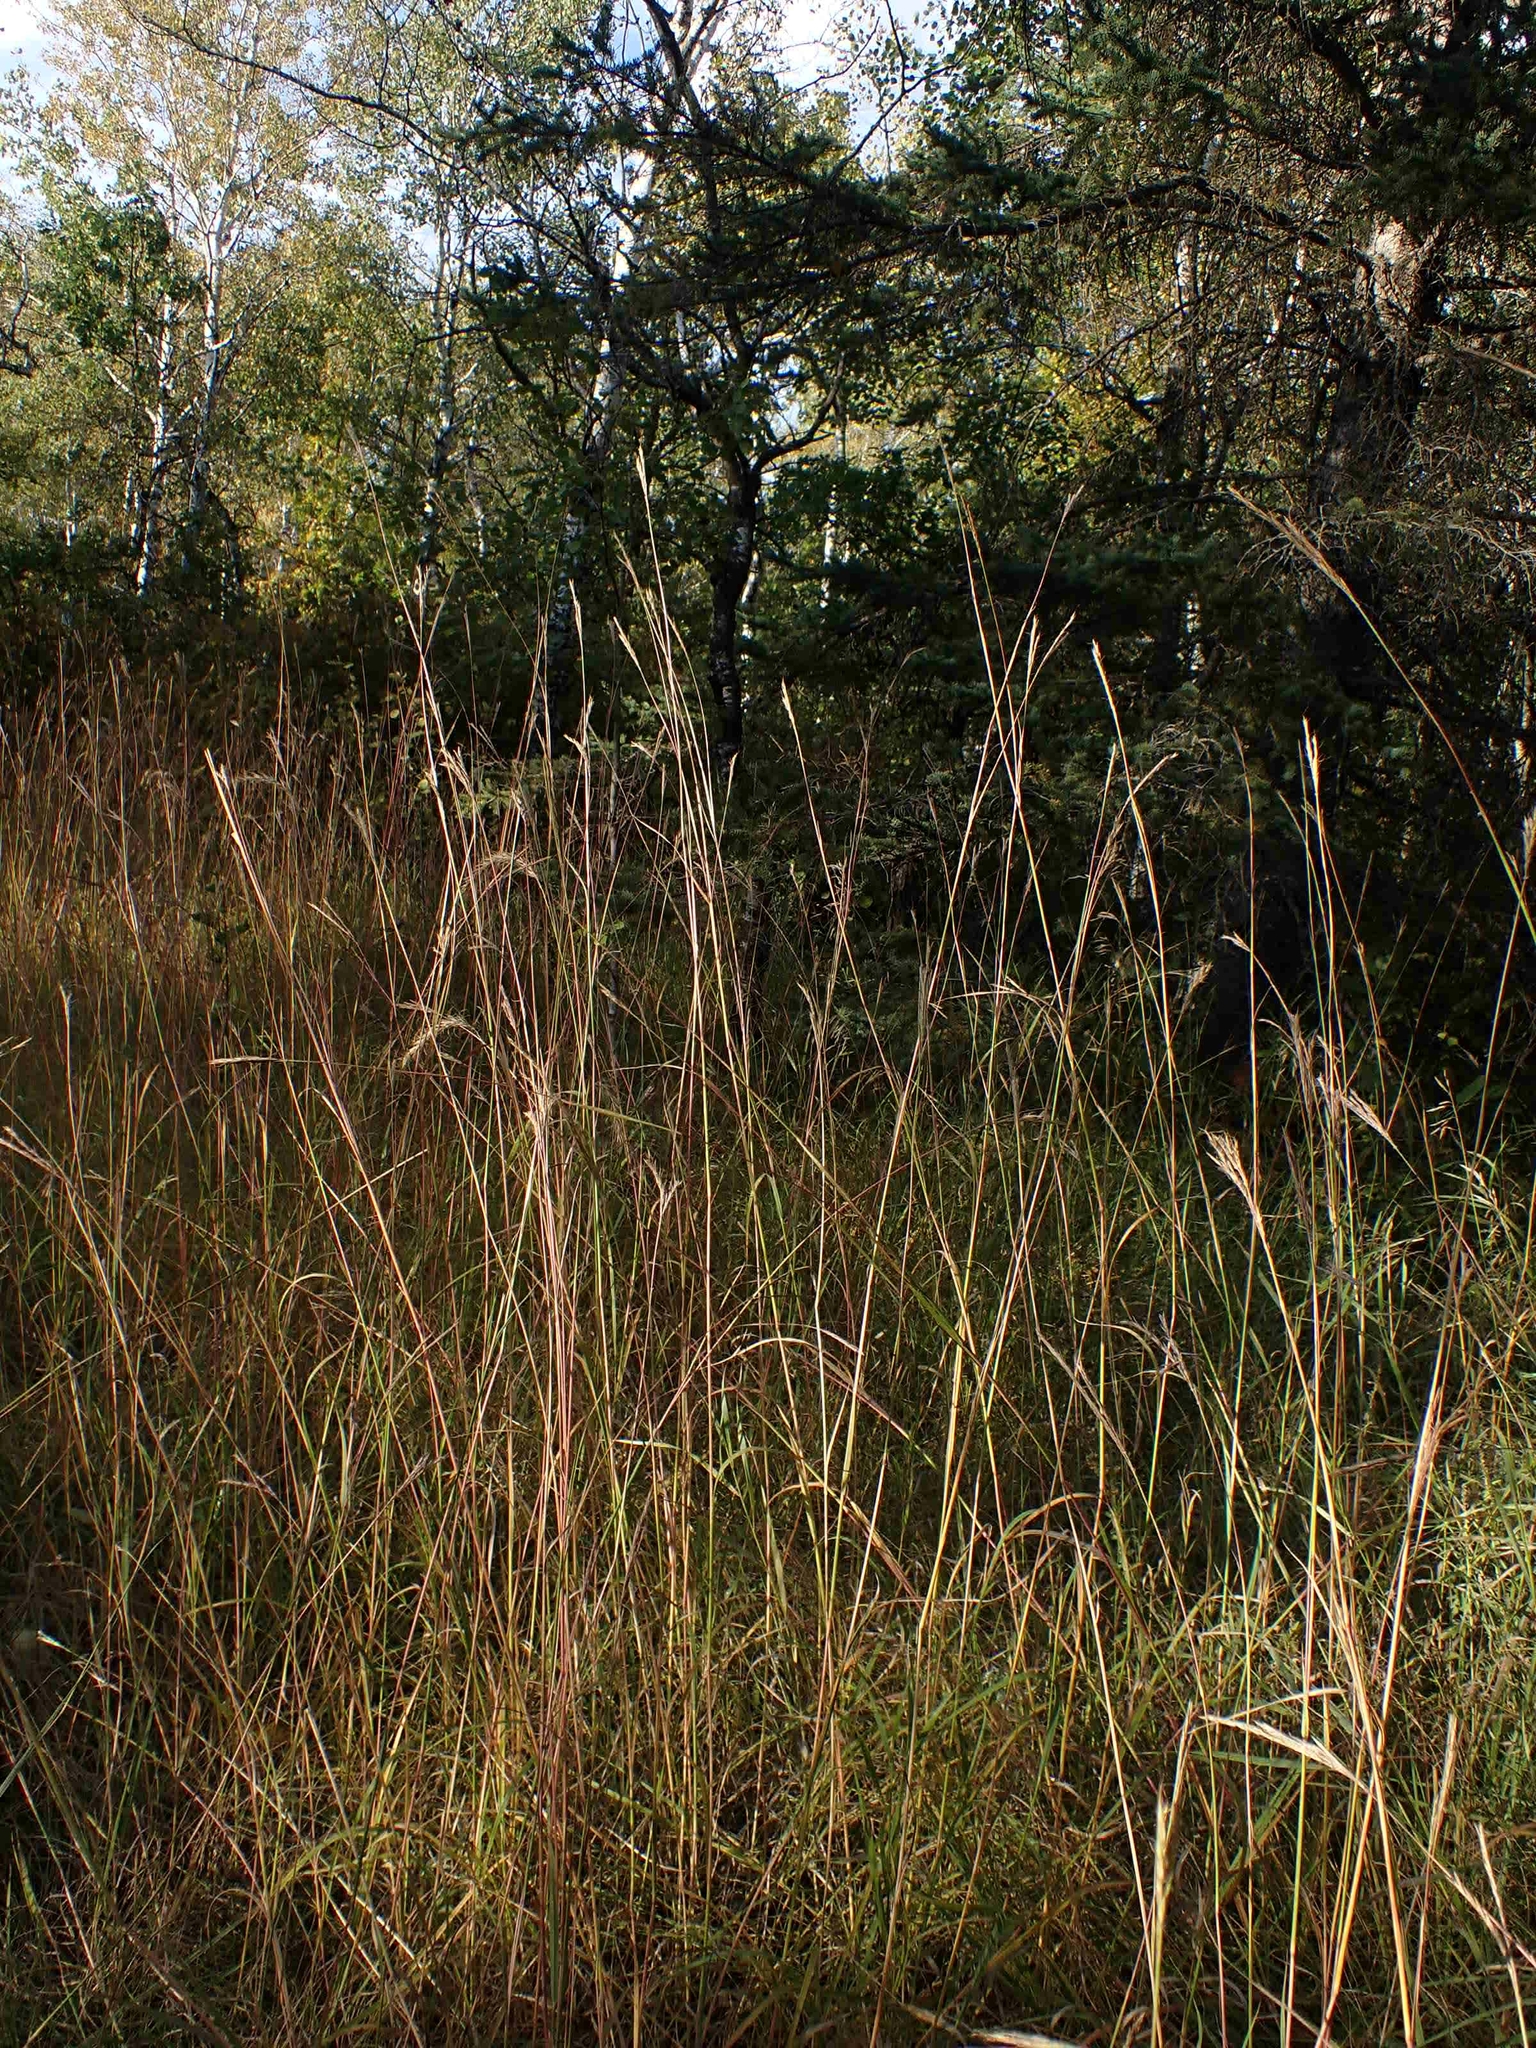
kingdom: Plantae
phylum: Tracheophyta
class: Liliopsida
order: Poales
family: Poaceae
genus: Andropogon
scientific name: Andropogon gerardi
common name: Big bluestem
